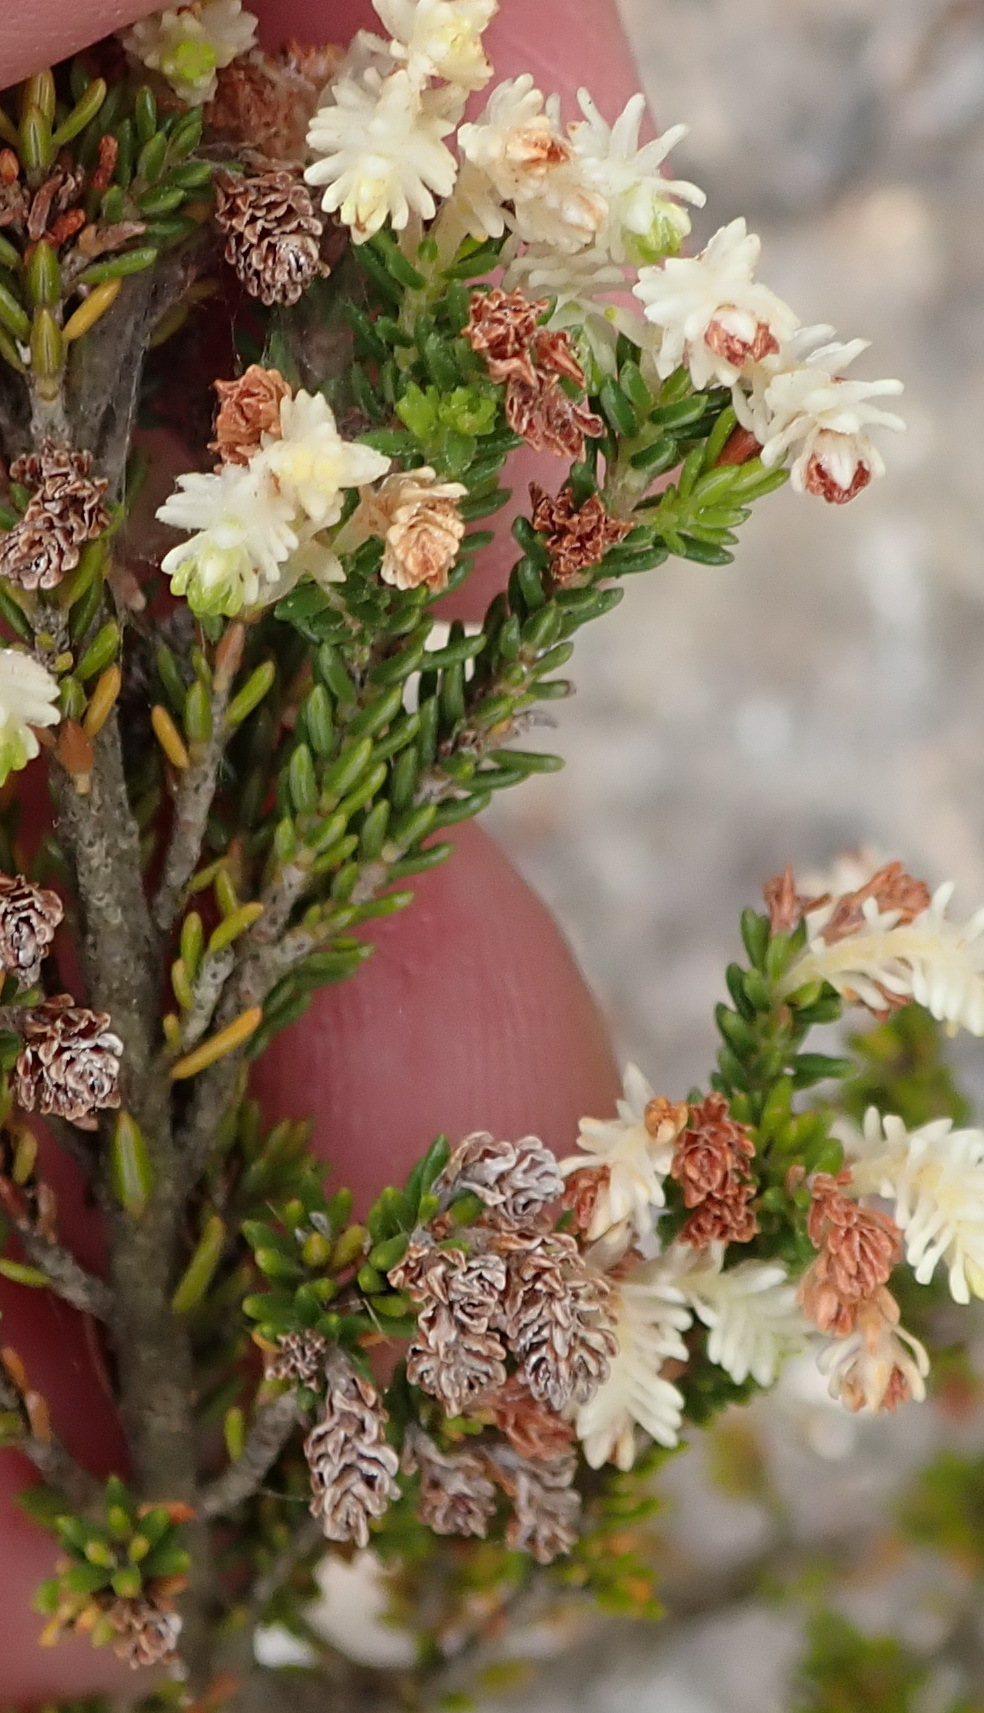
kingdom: Plantae
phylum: Tracheophyta
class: Magnoliopsida
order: Ericales
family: Ericaceae
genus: Erica
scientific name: Erica glomiflora
